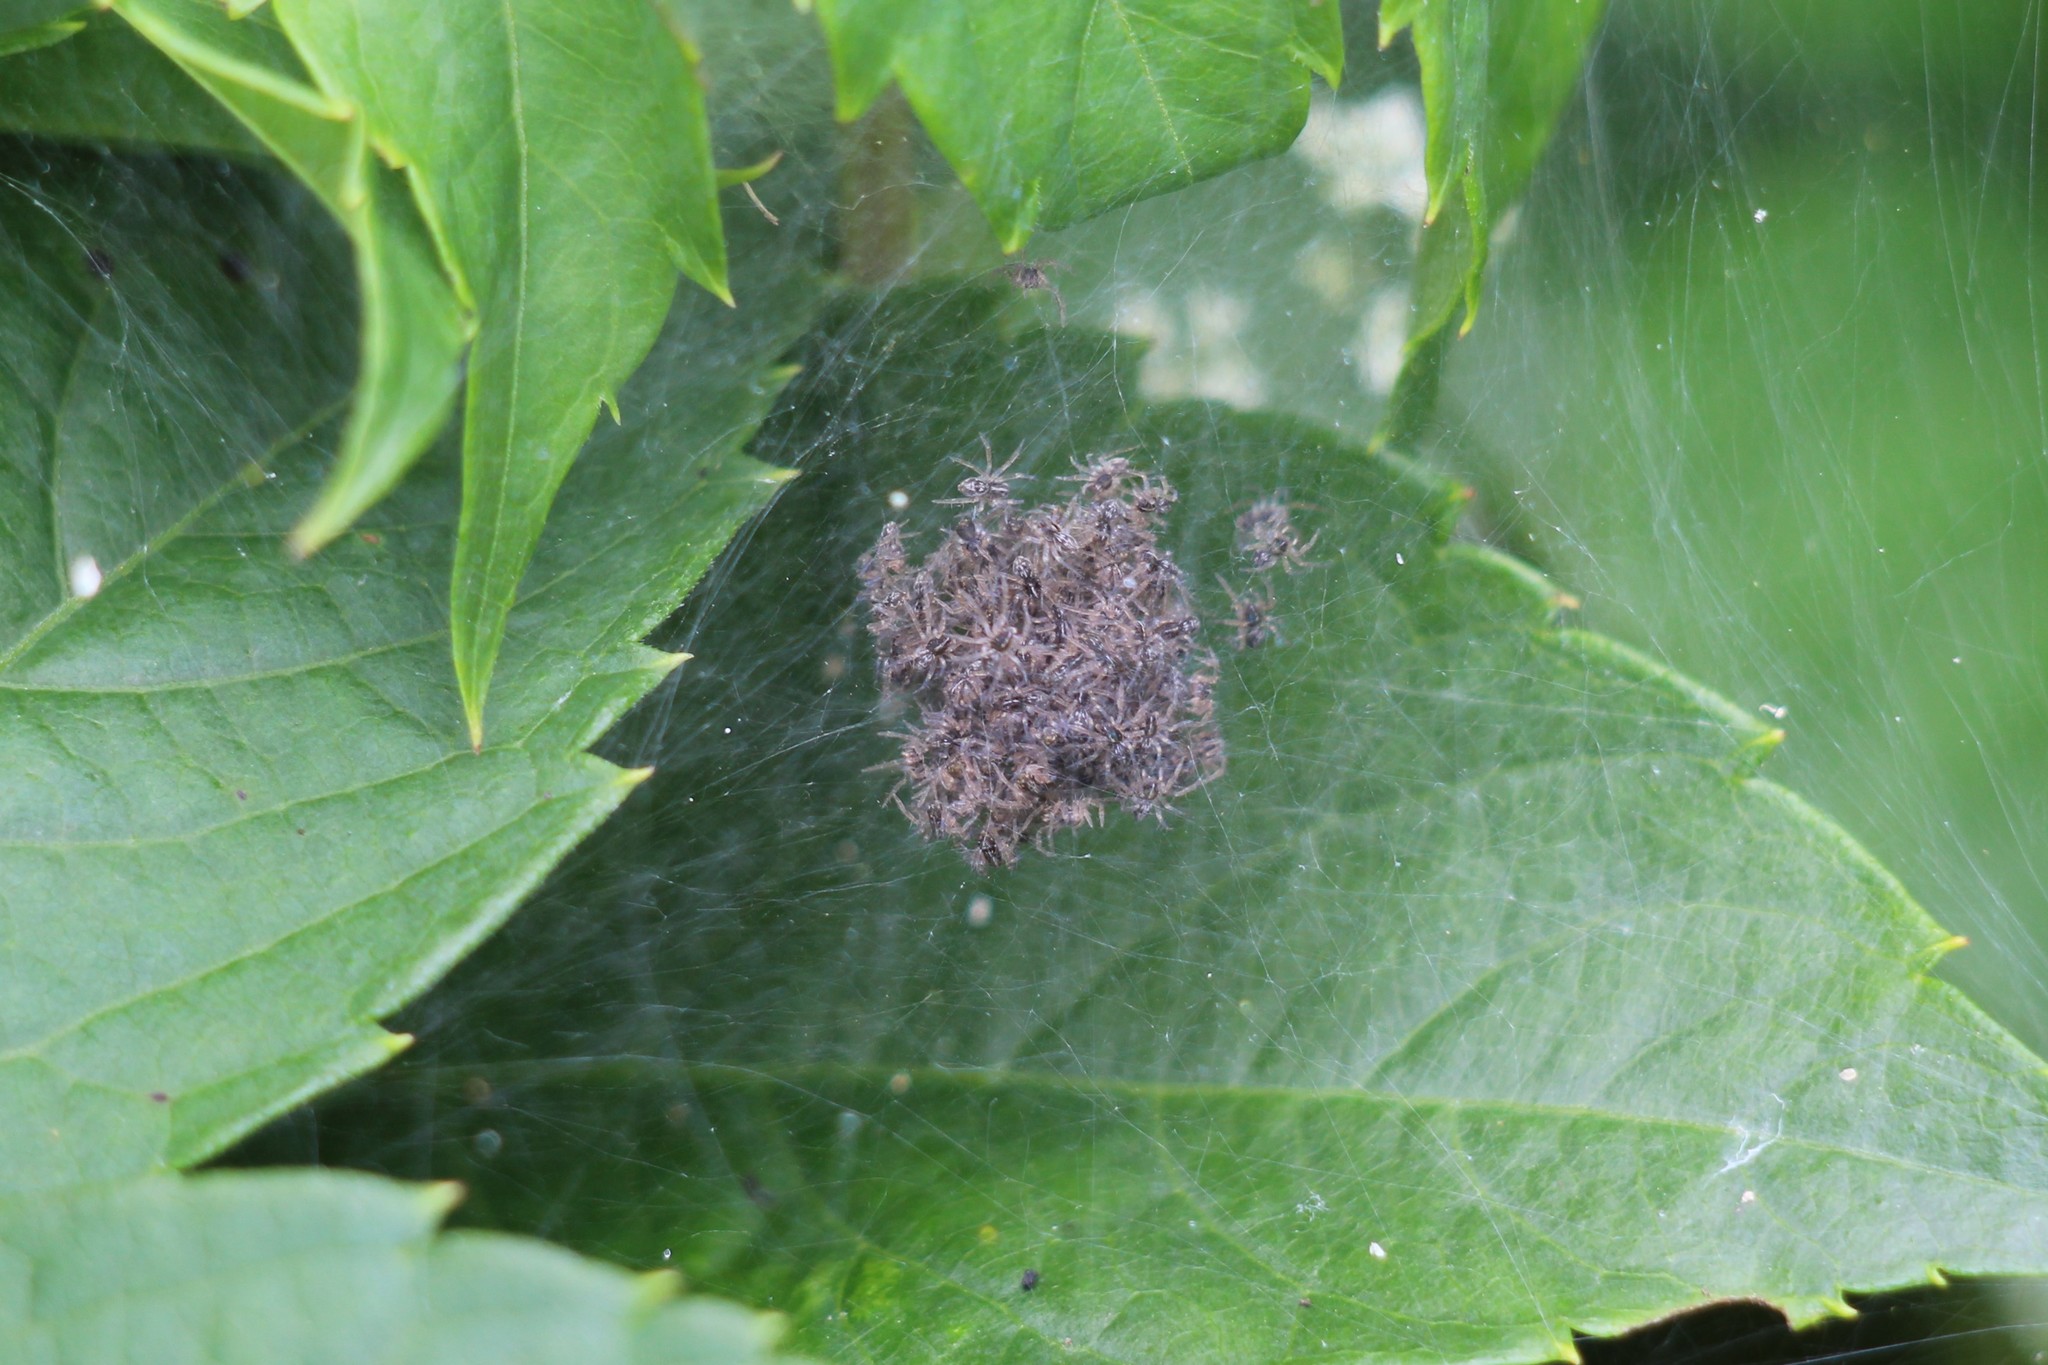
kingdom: Animalia
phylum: Arthropoda
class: Arachnida
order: Araneae
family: Pisauridae
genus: Pisaura
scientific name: Pisaura mirabilis
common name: Tent spider
